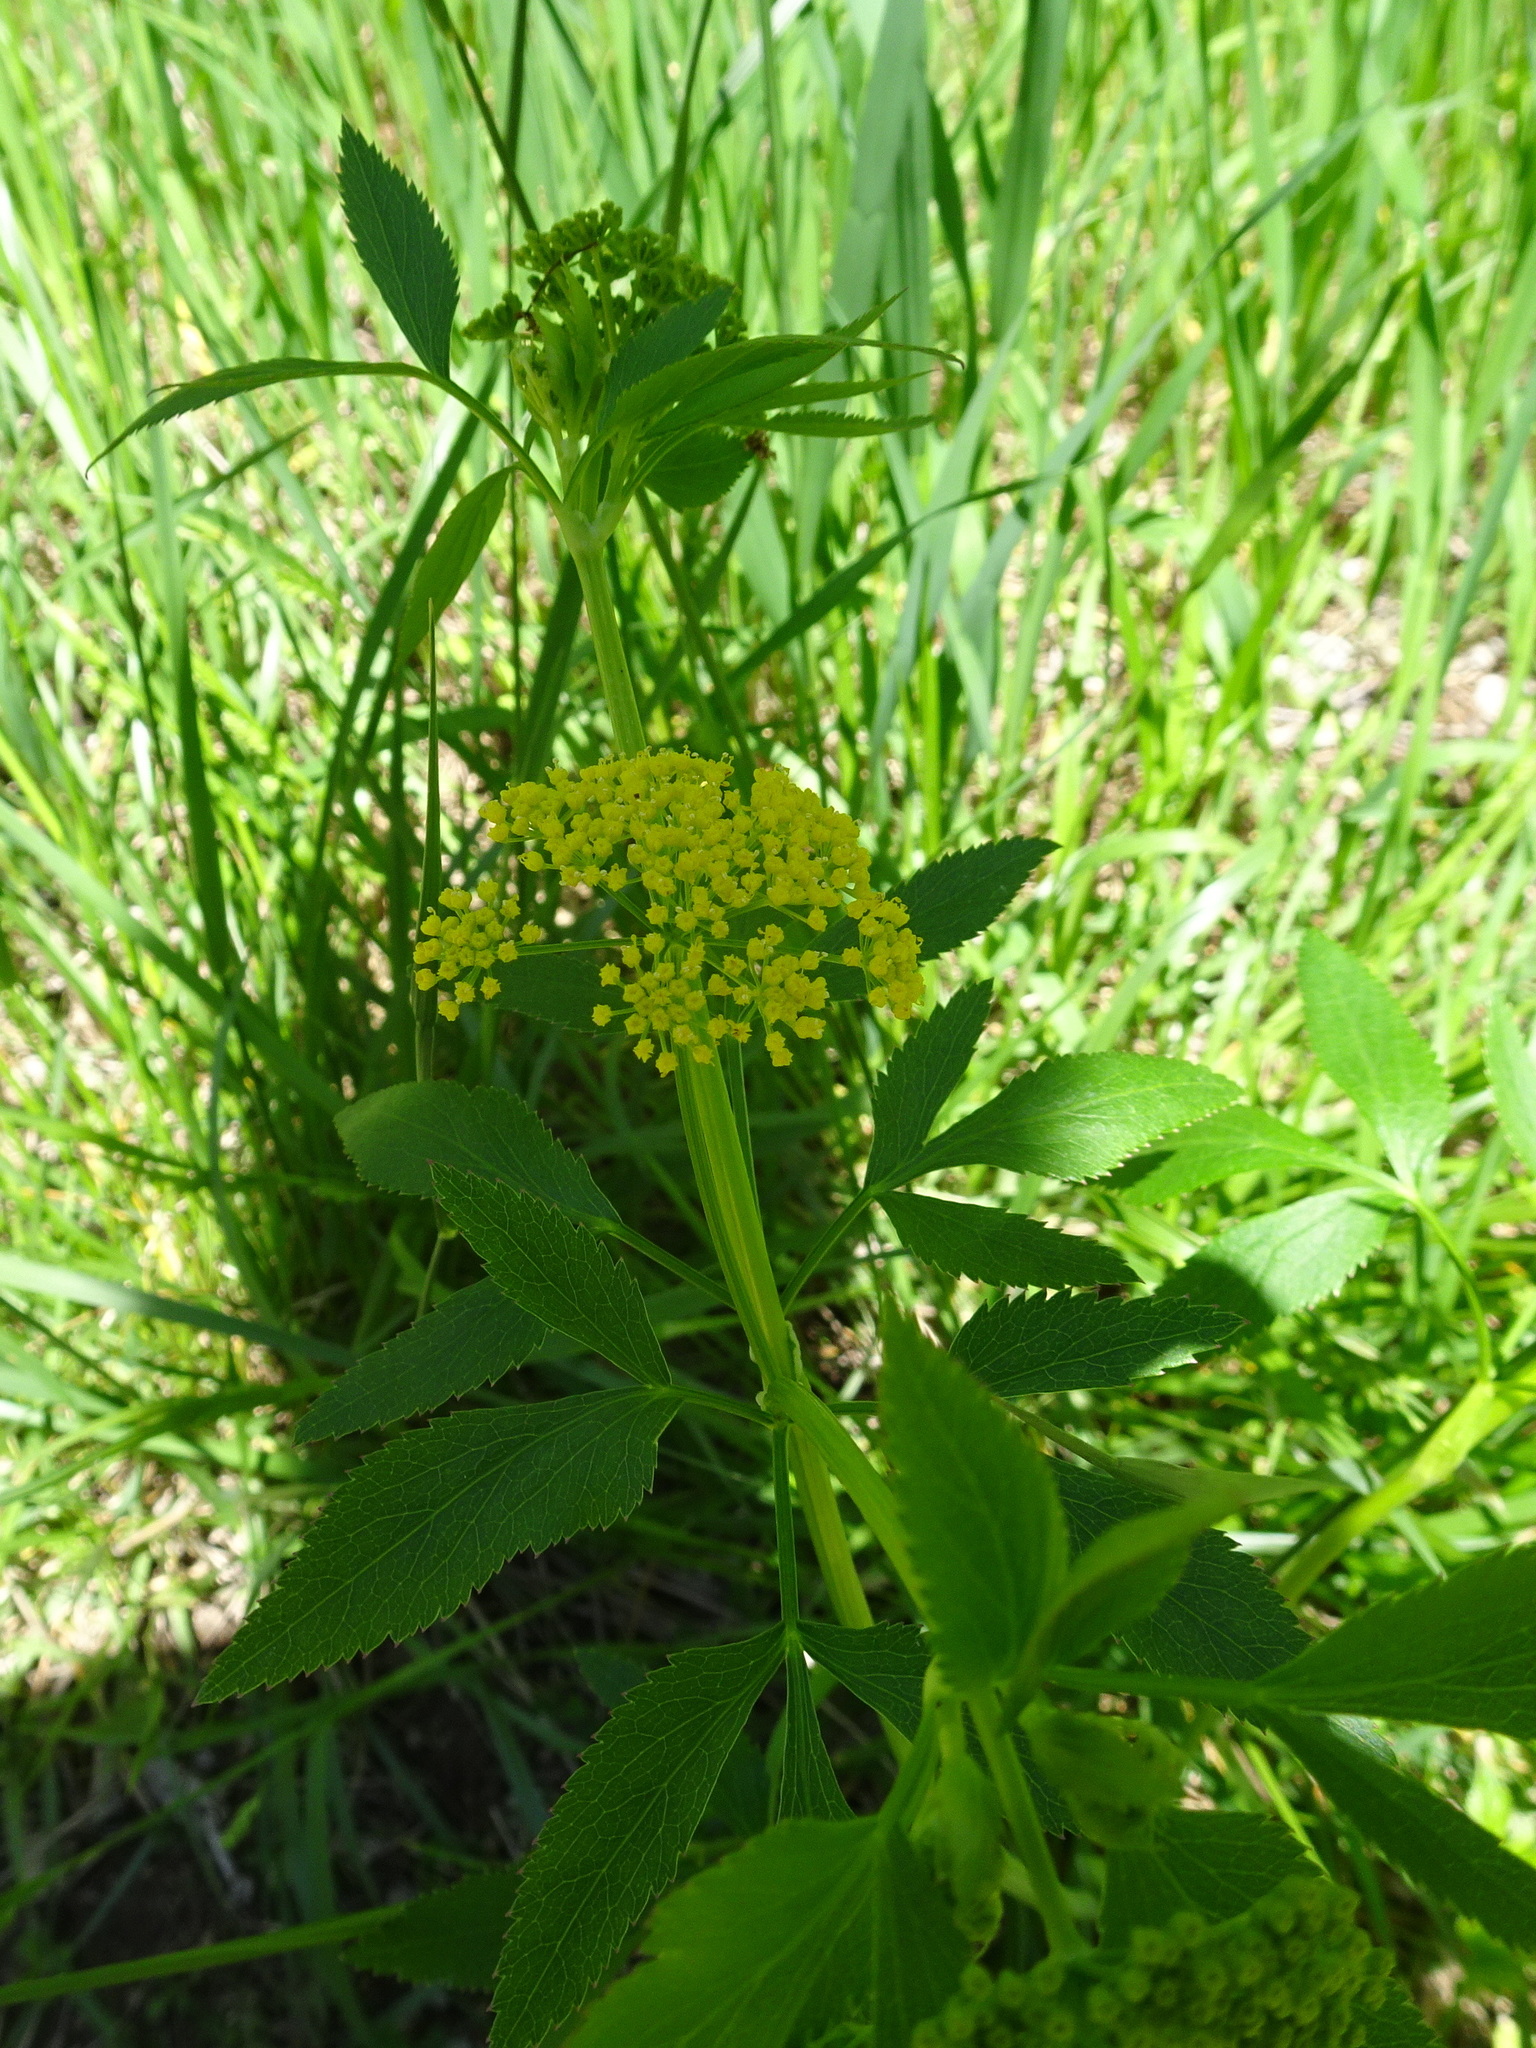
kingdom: Plantae
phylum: Tracheophyta
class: Magnoliopsida
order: Apiales
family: Apiaceae
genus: Zizia
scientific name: Zizia aurea
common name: Golden alexanders
